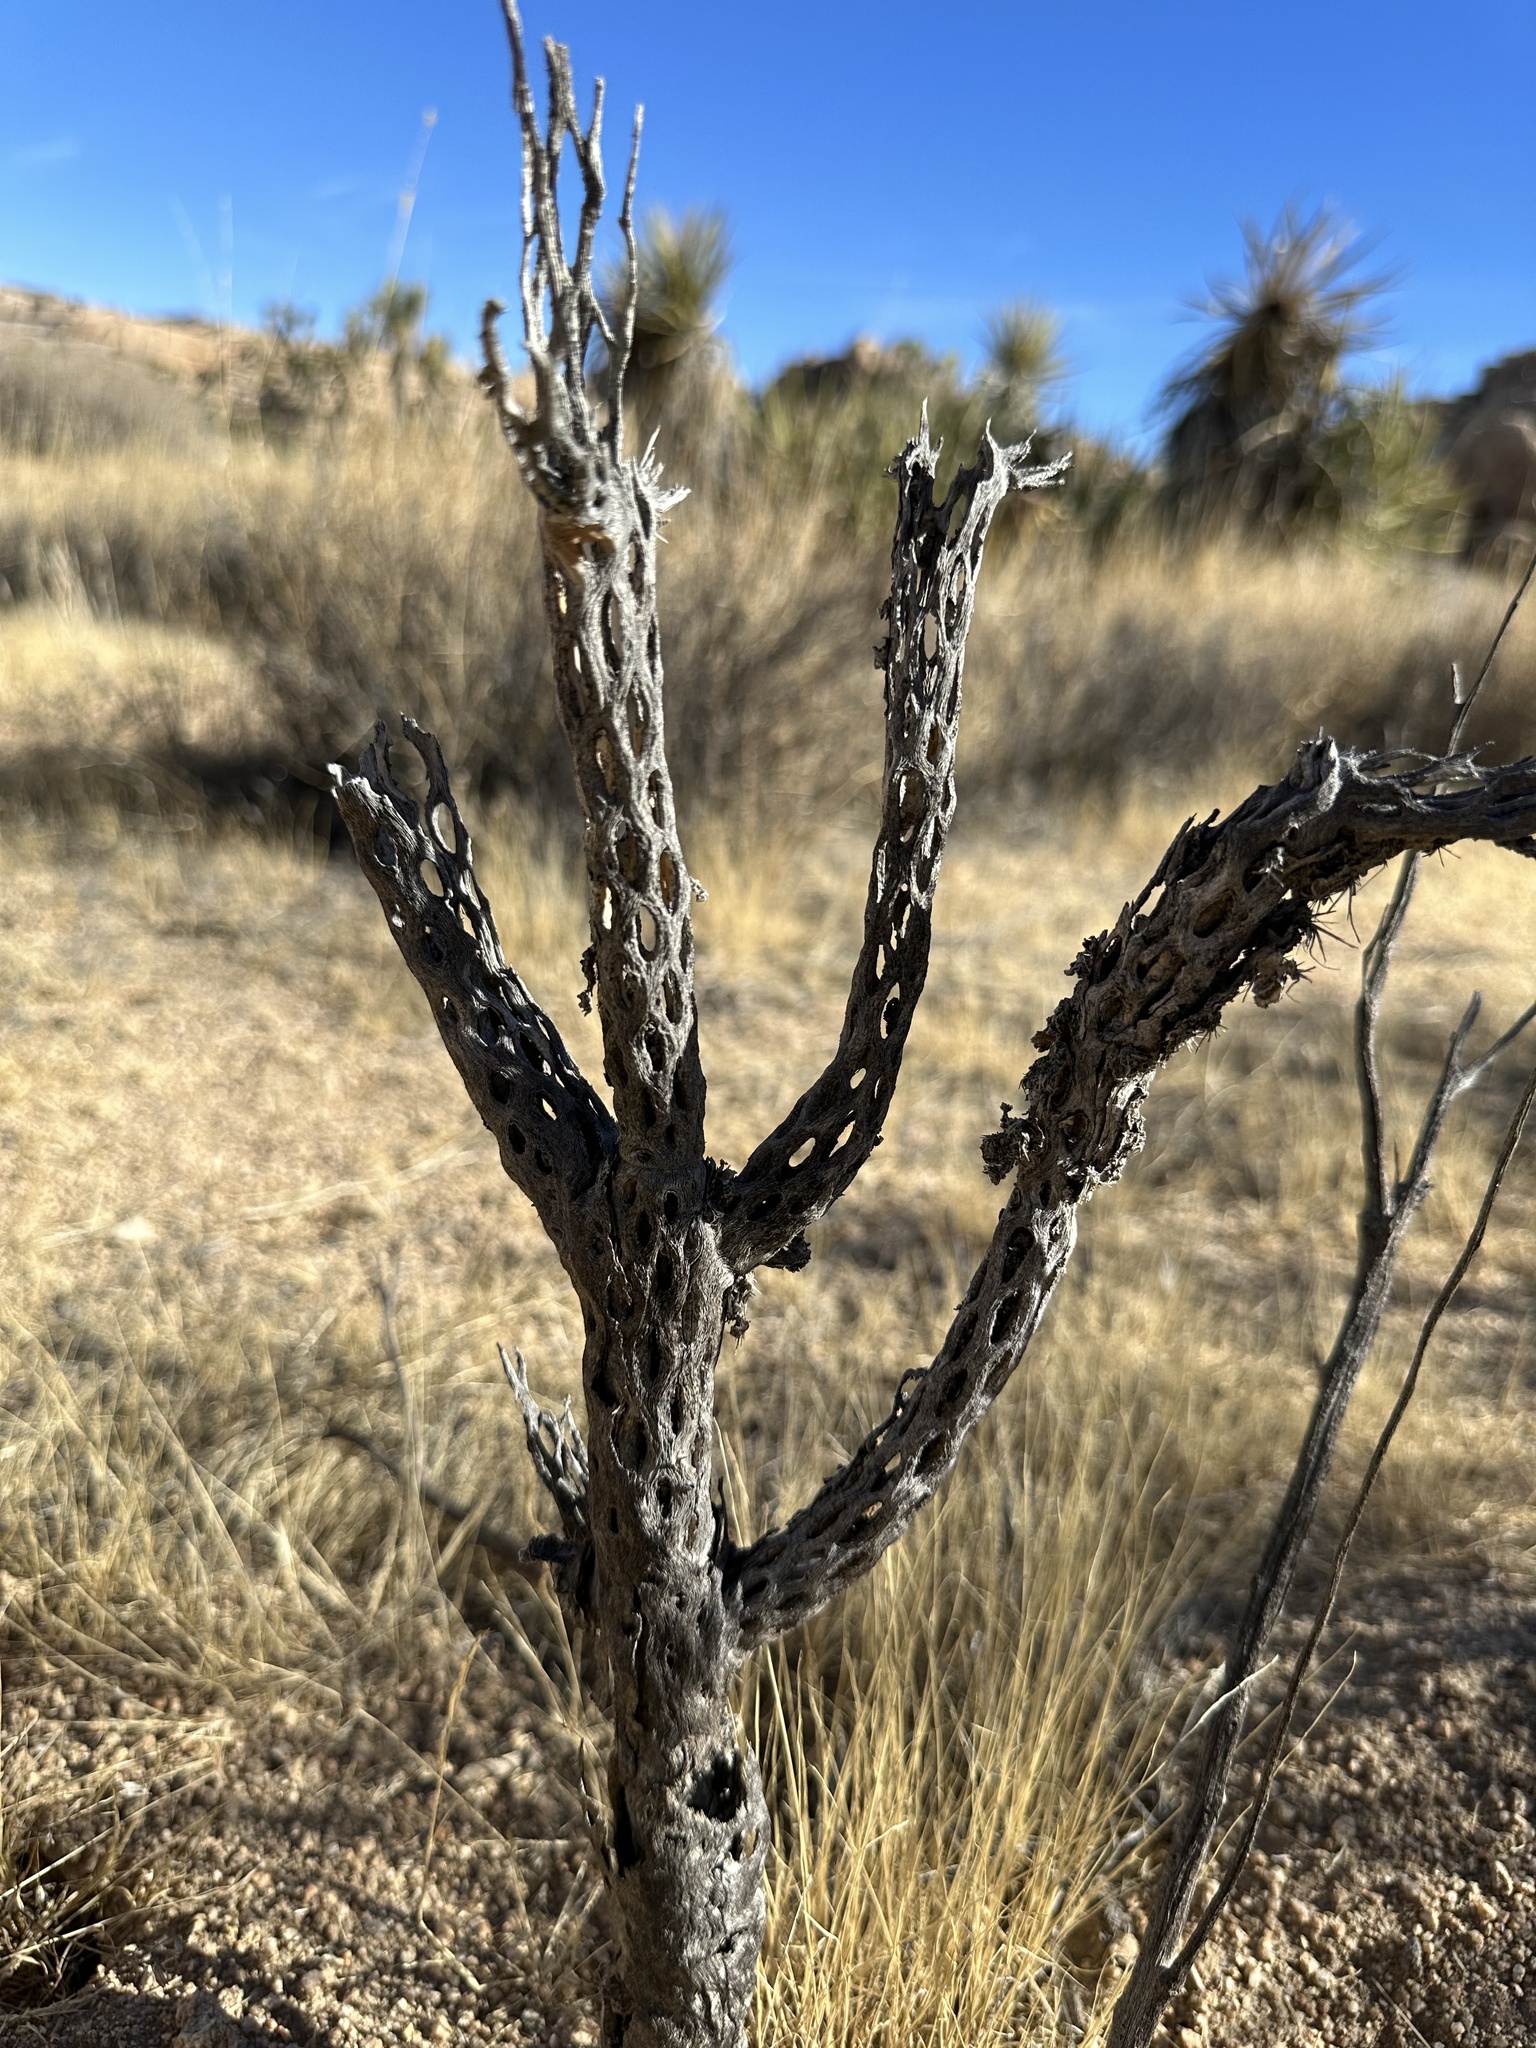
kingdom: Plantae
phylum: Tracheophyta
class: Magnoliopsida
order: Caryophyllales
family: Cactaceae
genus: Cylindropuntia
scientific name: Cylindropuntia echinocarpa
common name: Ground cholla
